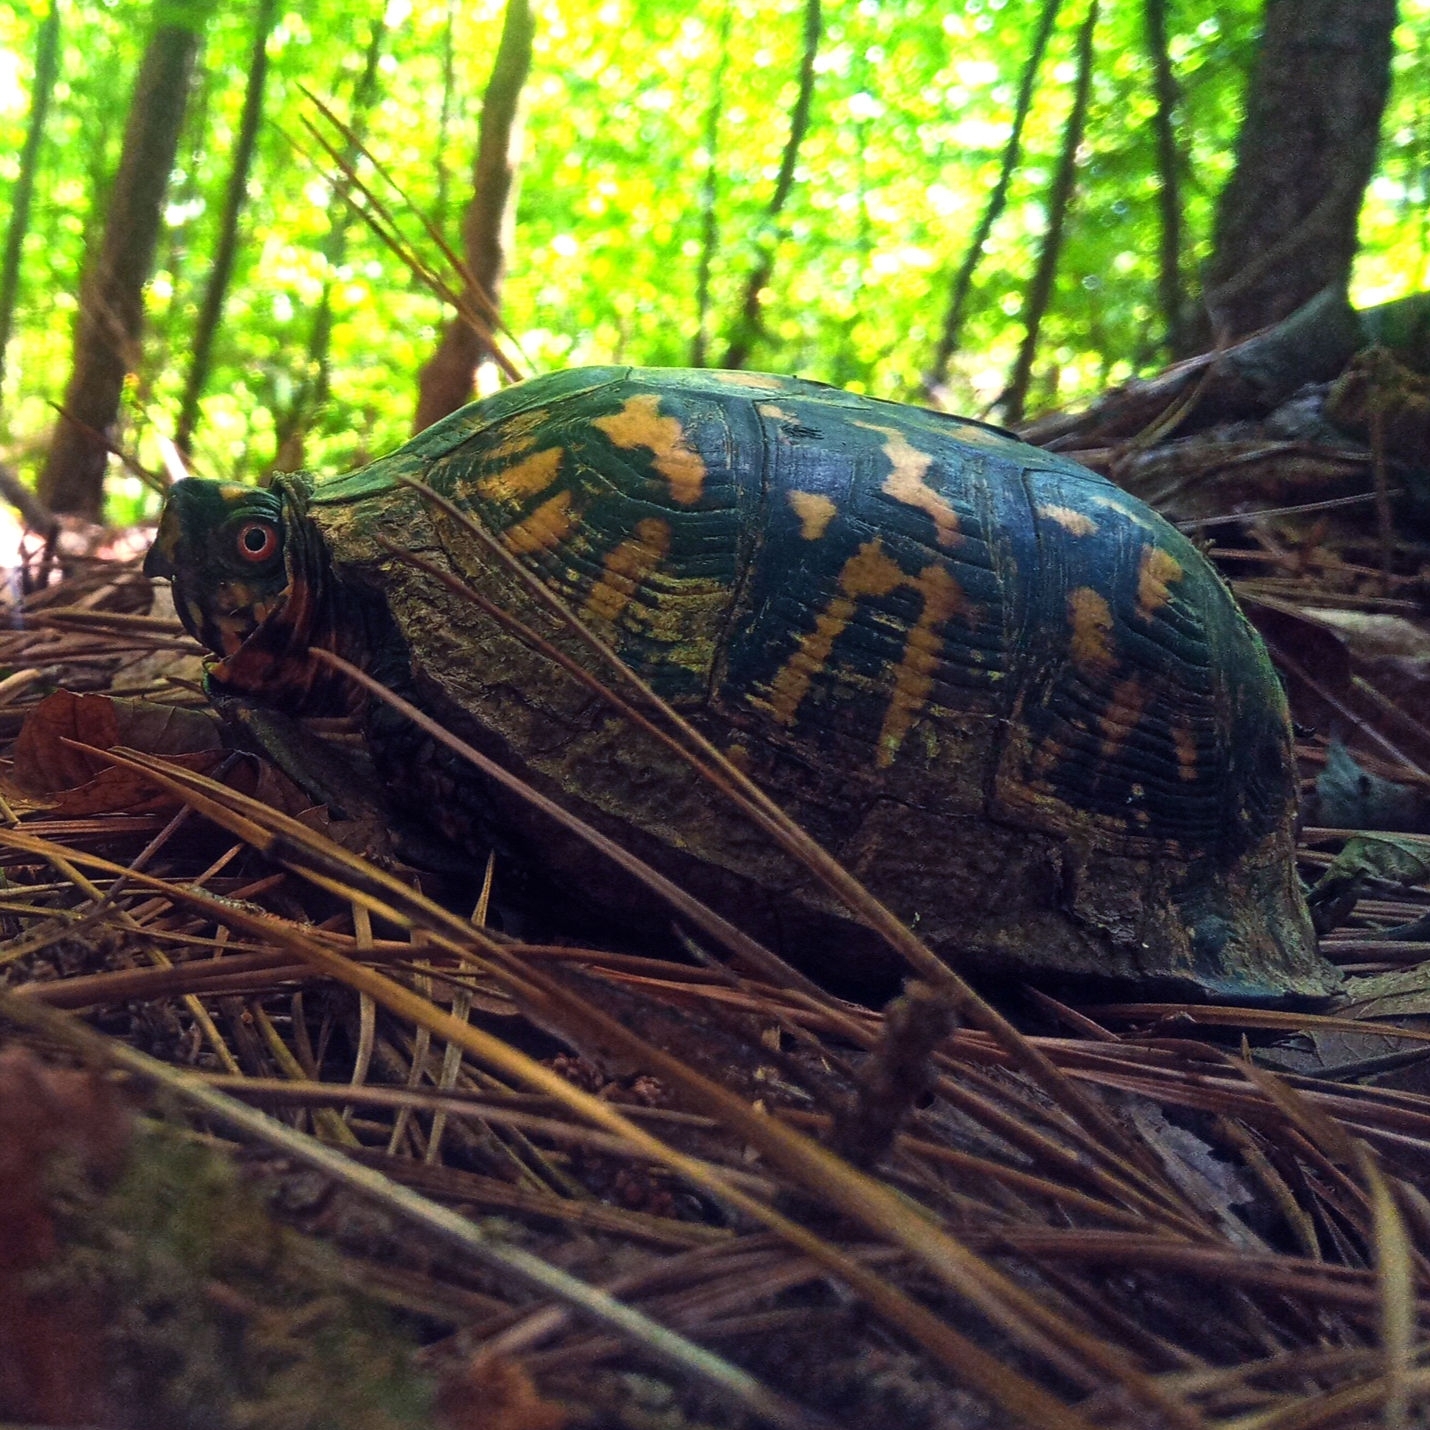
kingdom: Animalia
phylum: Chordata
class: Testudines
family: Emydidae
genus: Terrapene
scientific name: Terrapene carolina
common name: Common box turtle
